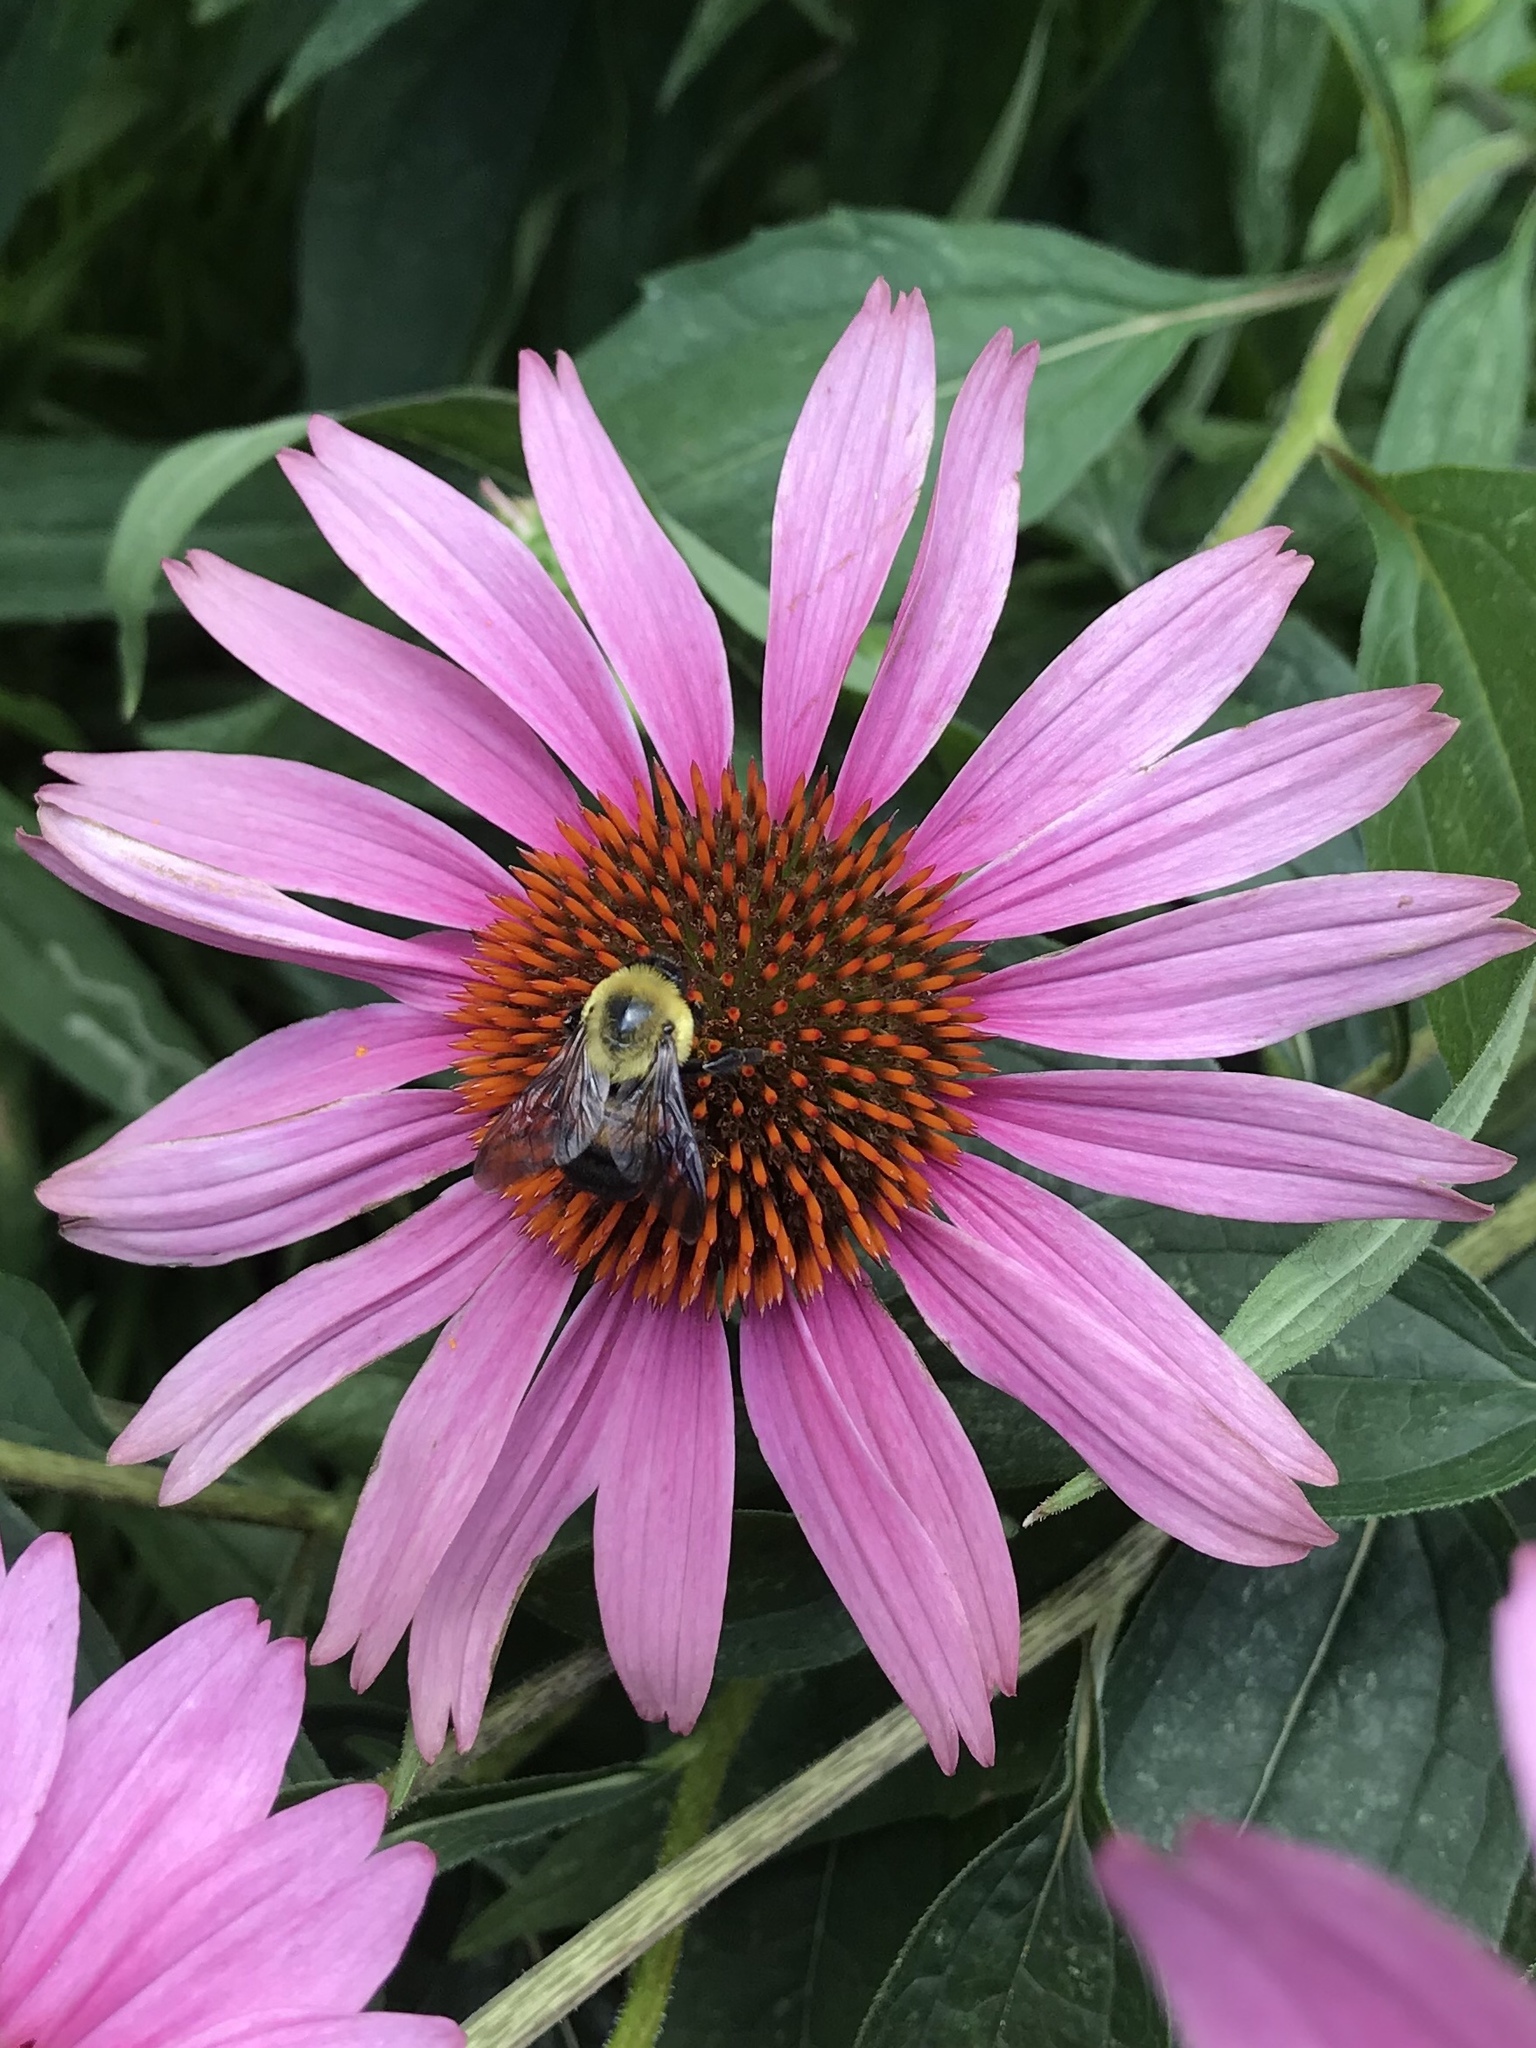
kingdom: Animalia
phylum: Arthropoda
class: Insecta
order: Hymenoptera
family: Apidae
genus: Bombus
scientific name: Bombus griseocollis
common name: Brown-belted bumble bee
